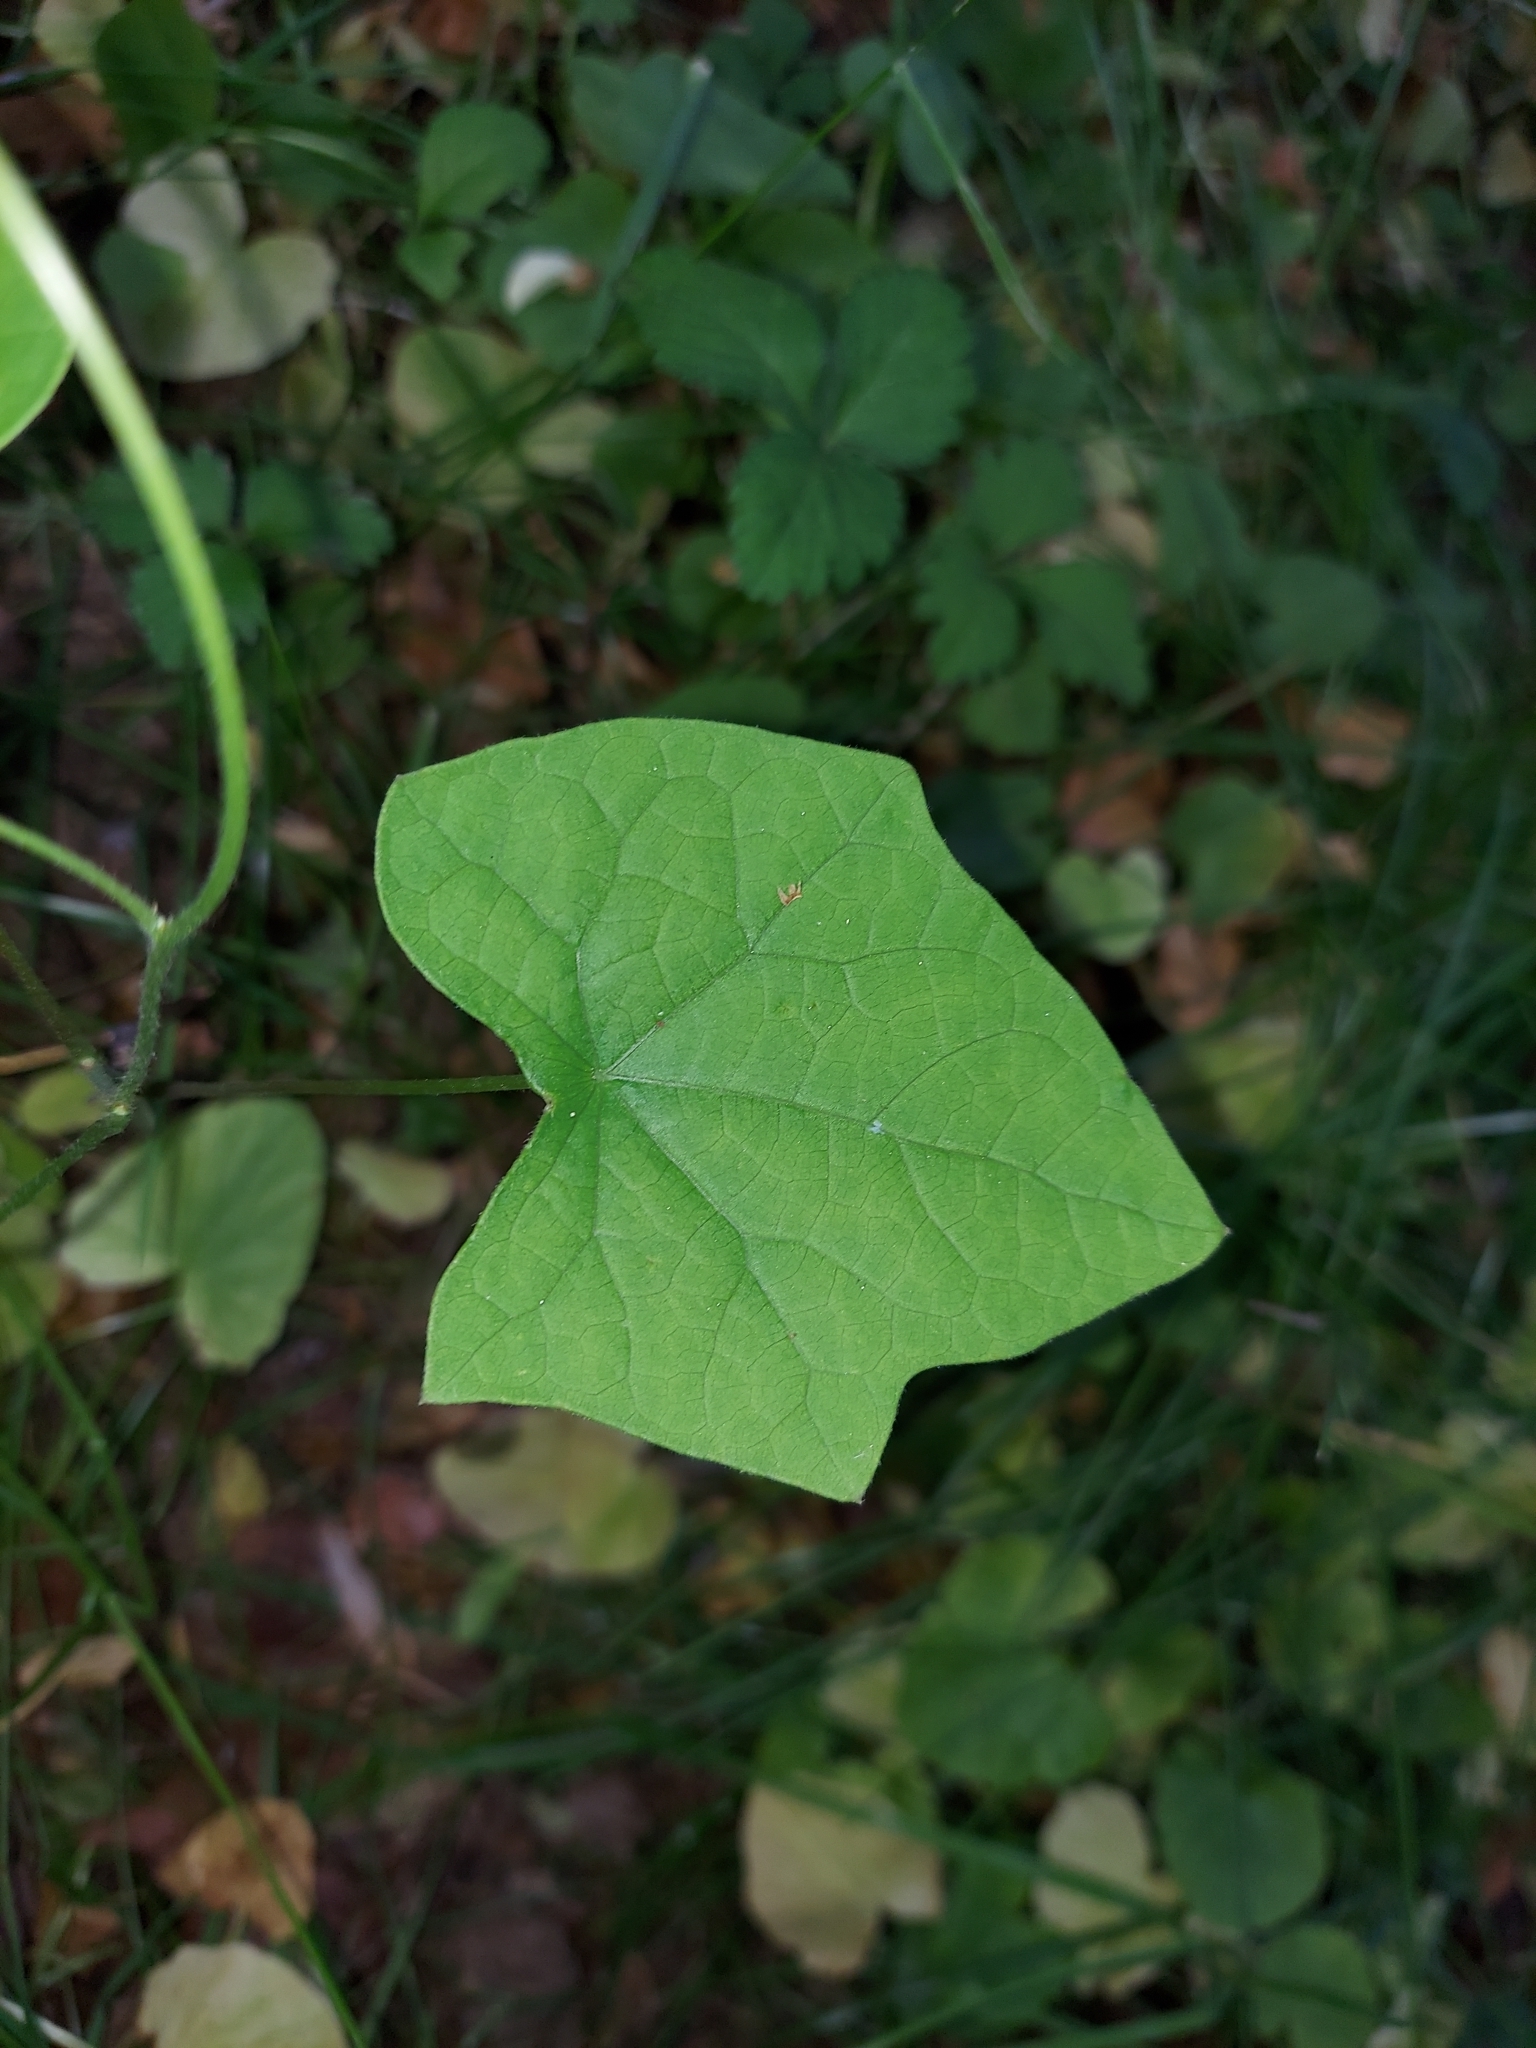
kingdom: Plantae
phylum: Tracheophyta
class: Magnoliopsida
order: Ranunculales
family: Menispermaceae
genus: Menispermum
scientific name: Menispermum canadense
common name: Moonseed
